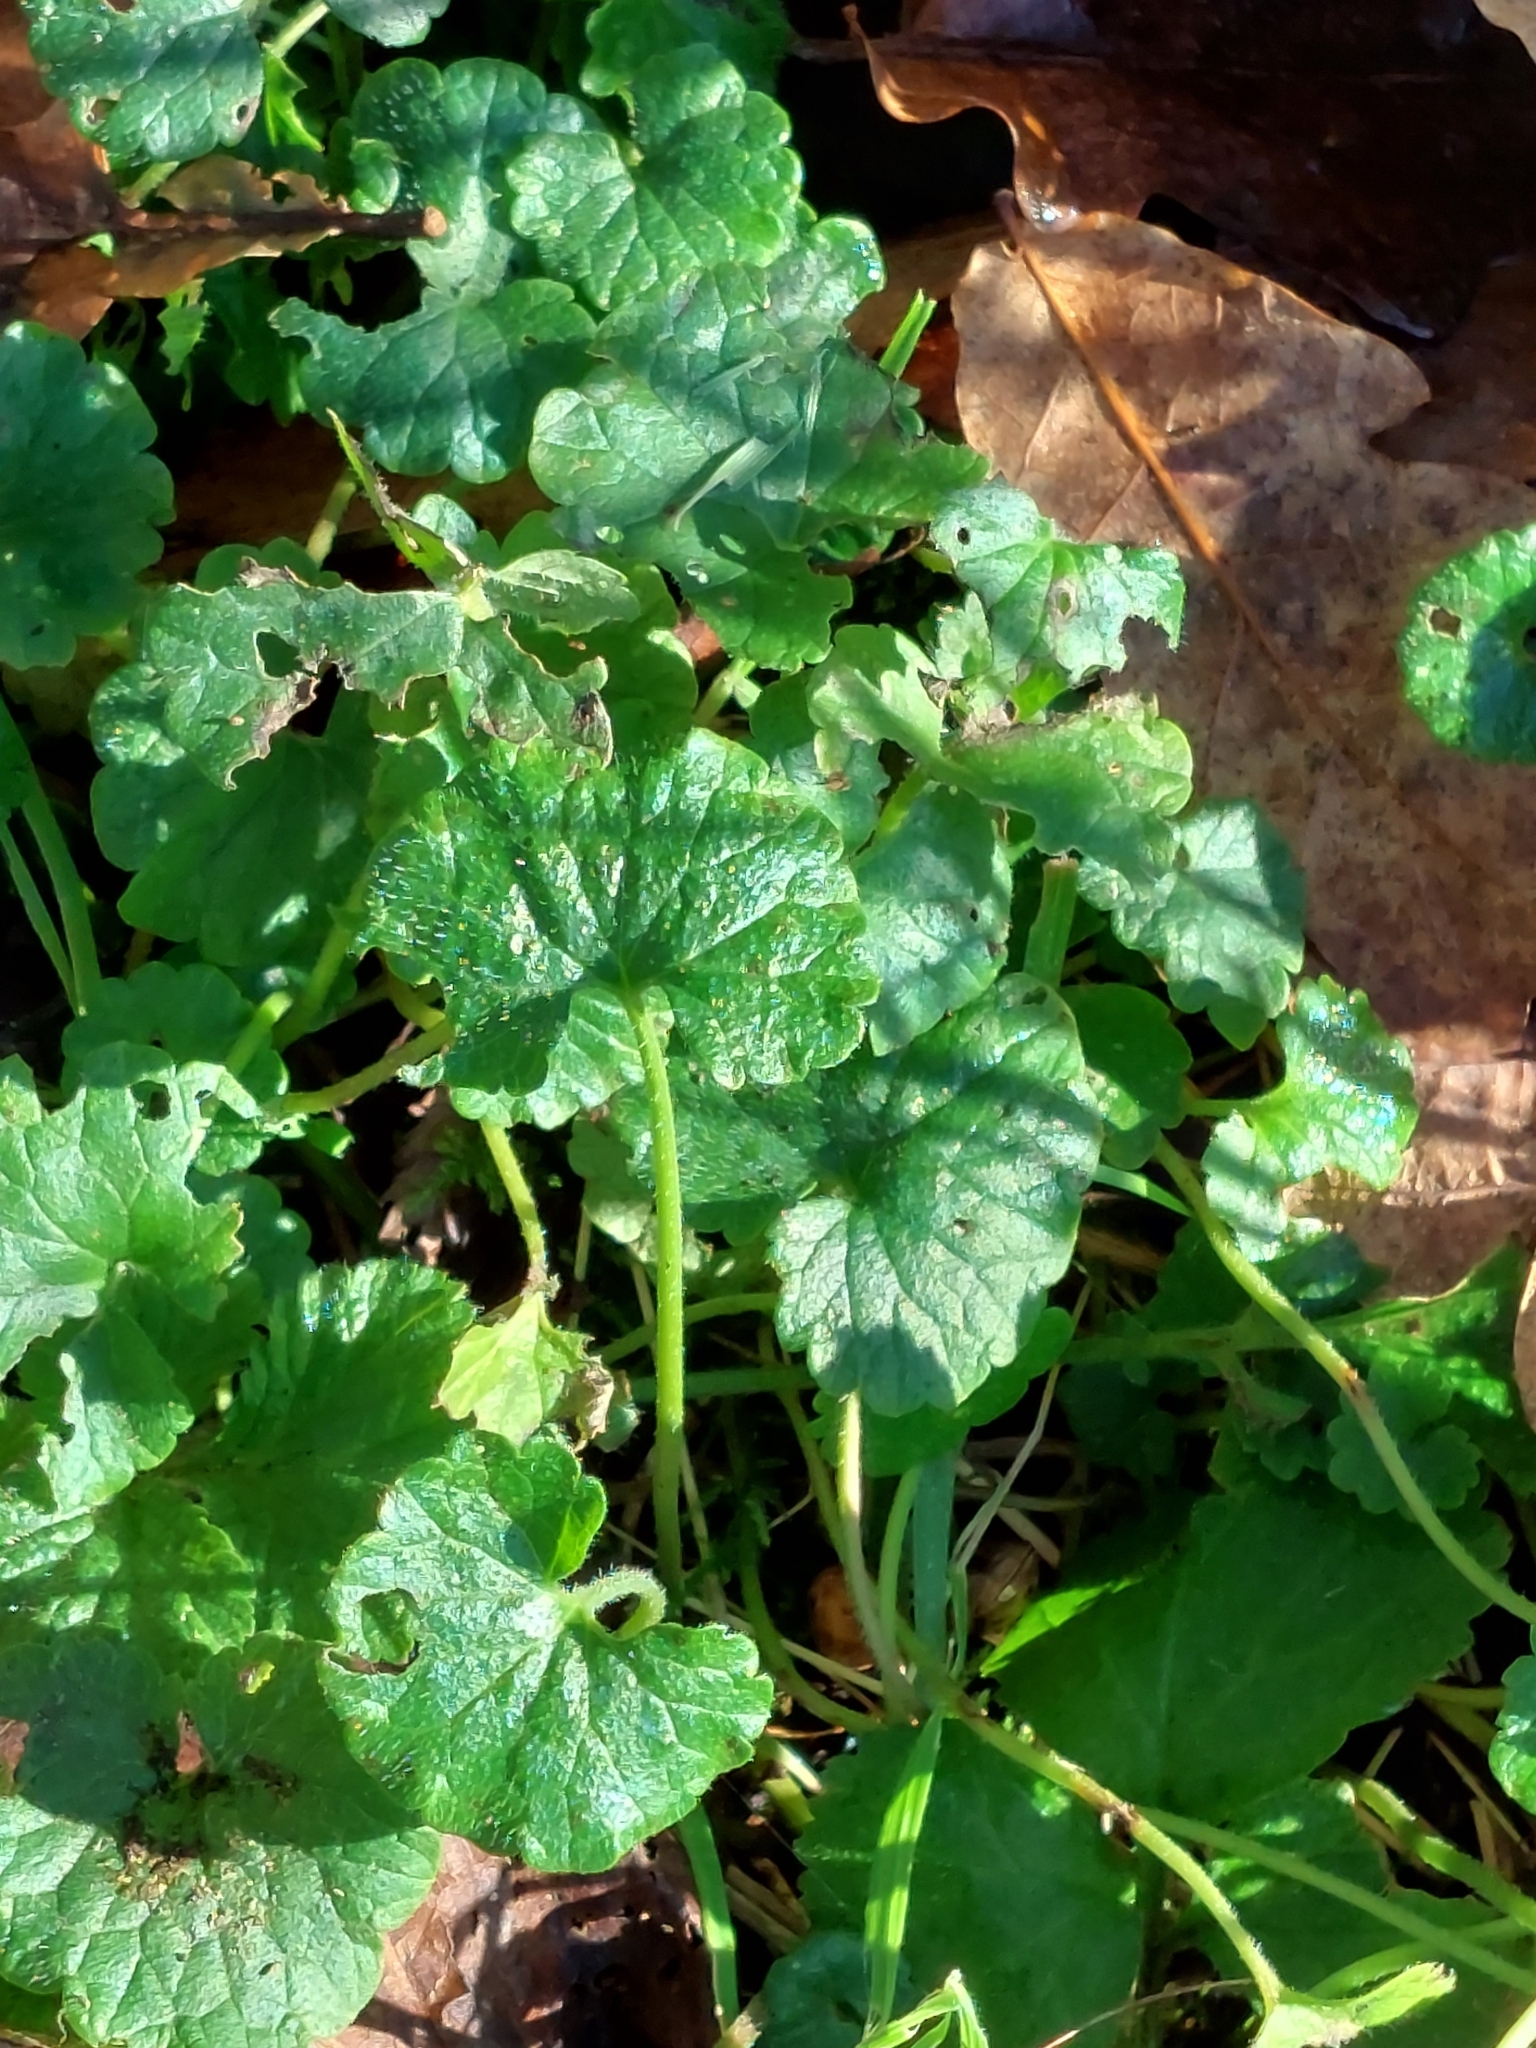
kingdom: Plantae
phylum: Tracheophyta
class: Magnoliopsida
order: Lamiales
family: Lamiaceae
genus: Glechoma
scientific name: Glechoma hederacea
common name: Ground ivy
